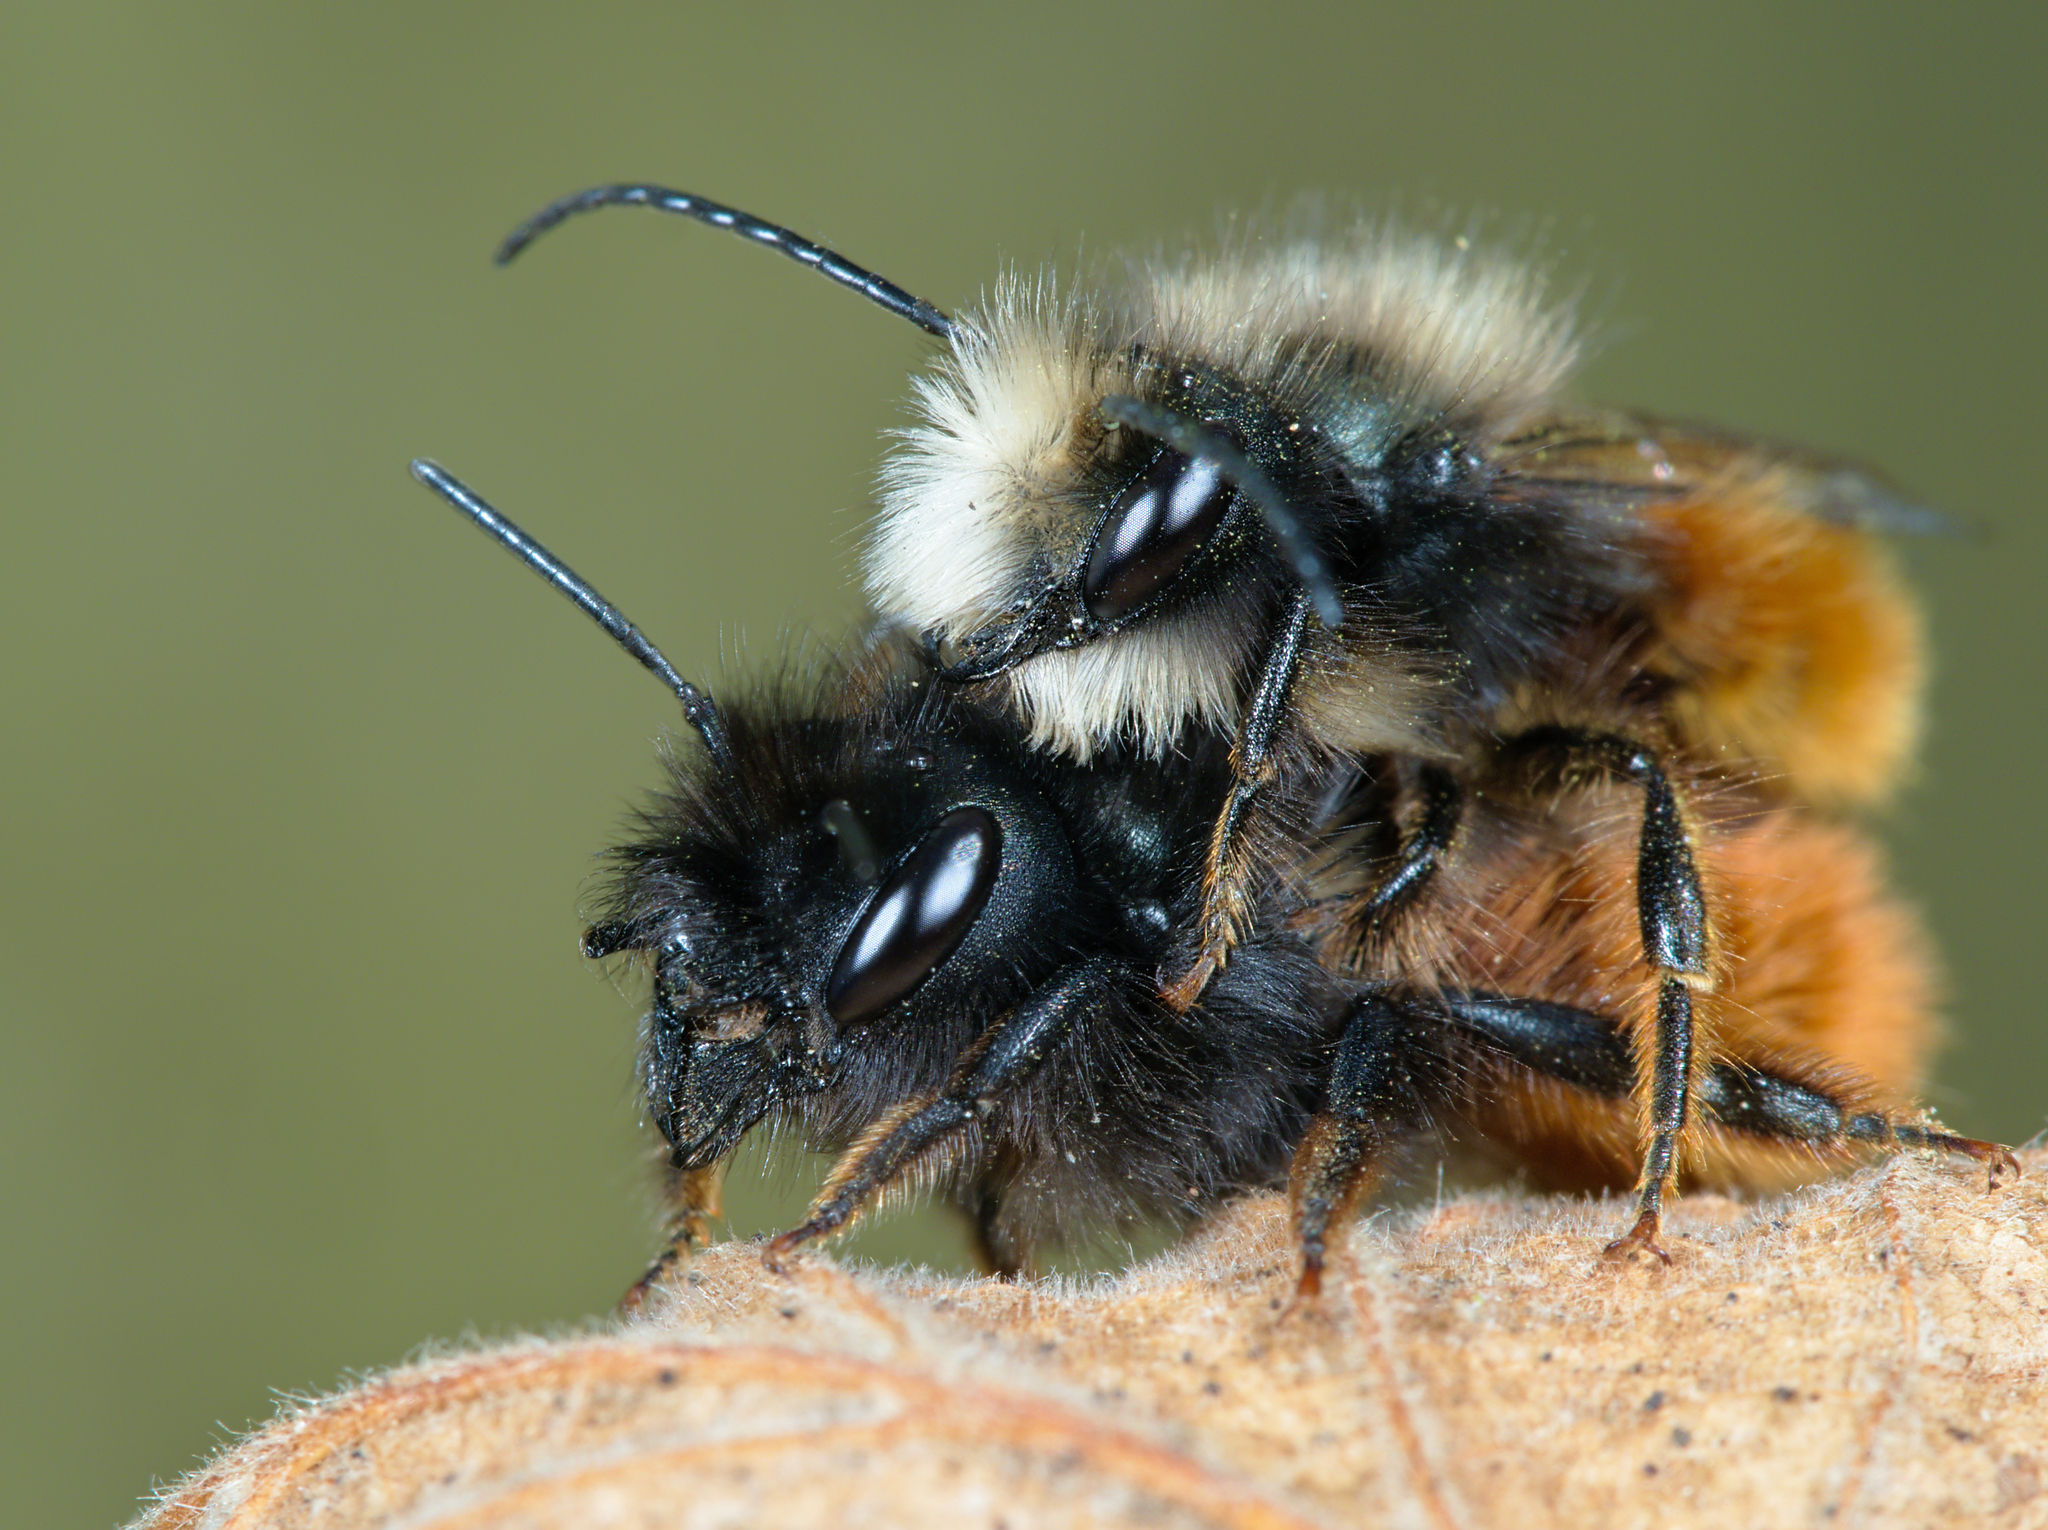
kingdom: Animalia
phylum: Arthropoda
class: Insecta
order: Hymenoptera
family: Megachilidae
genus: Osmia
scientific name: Osmia cornuta
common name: Mason bee
